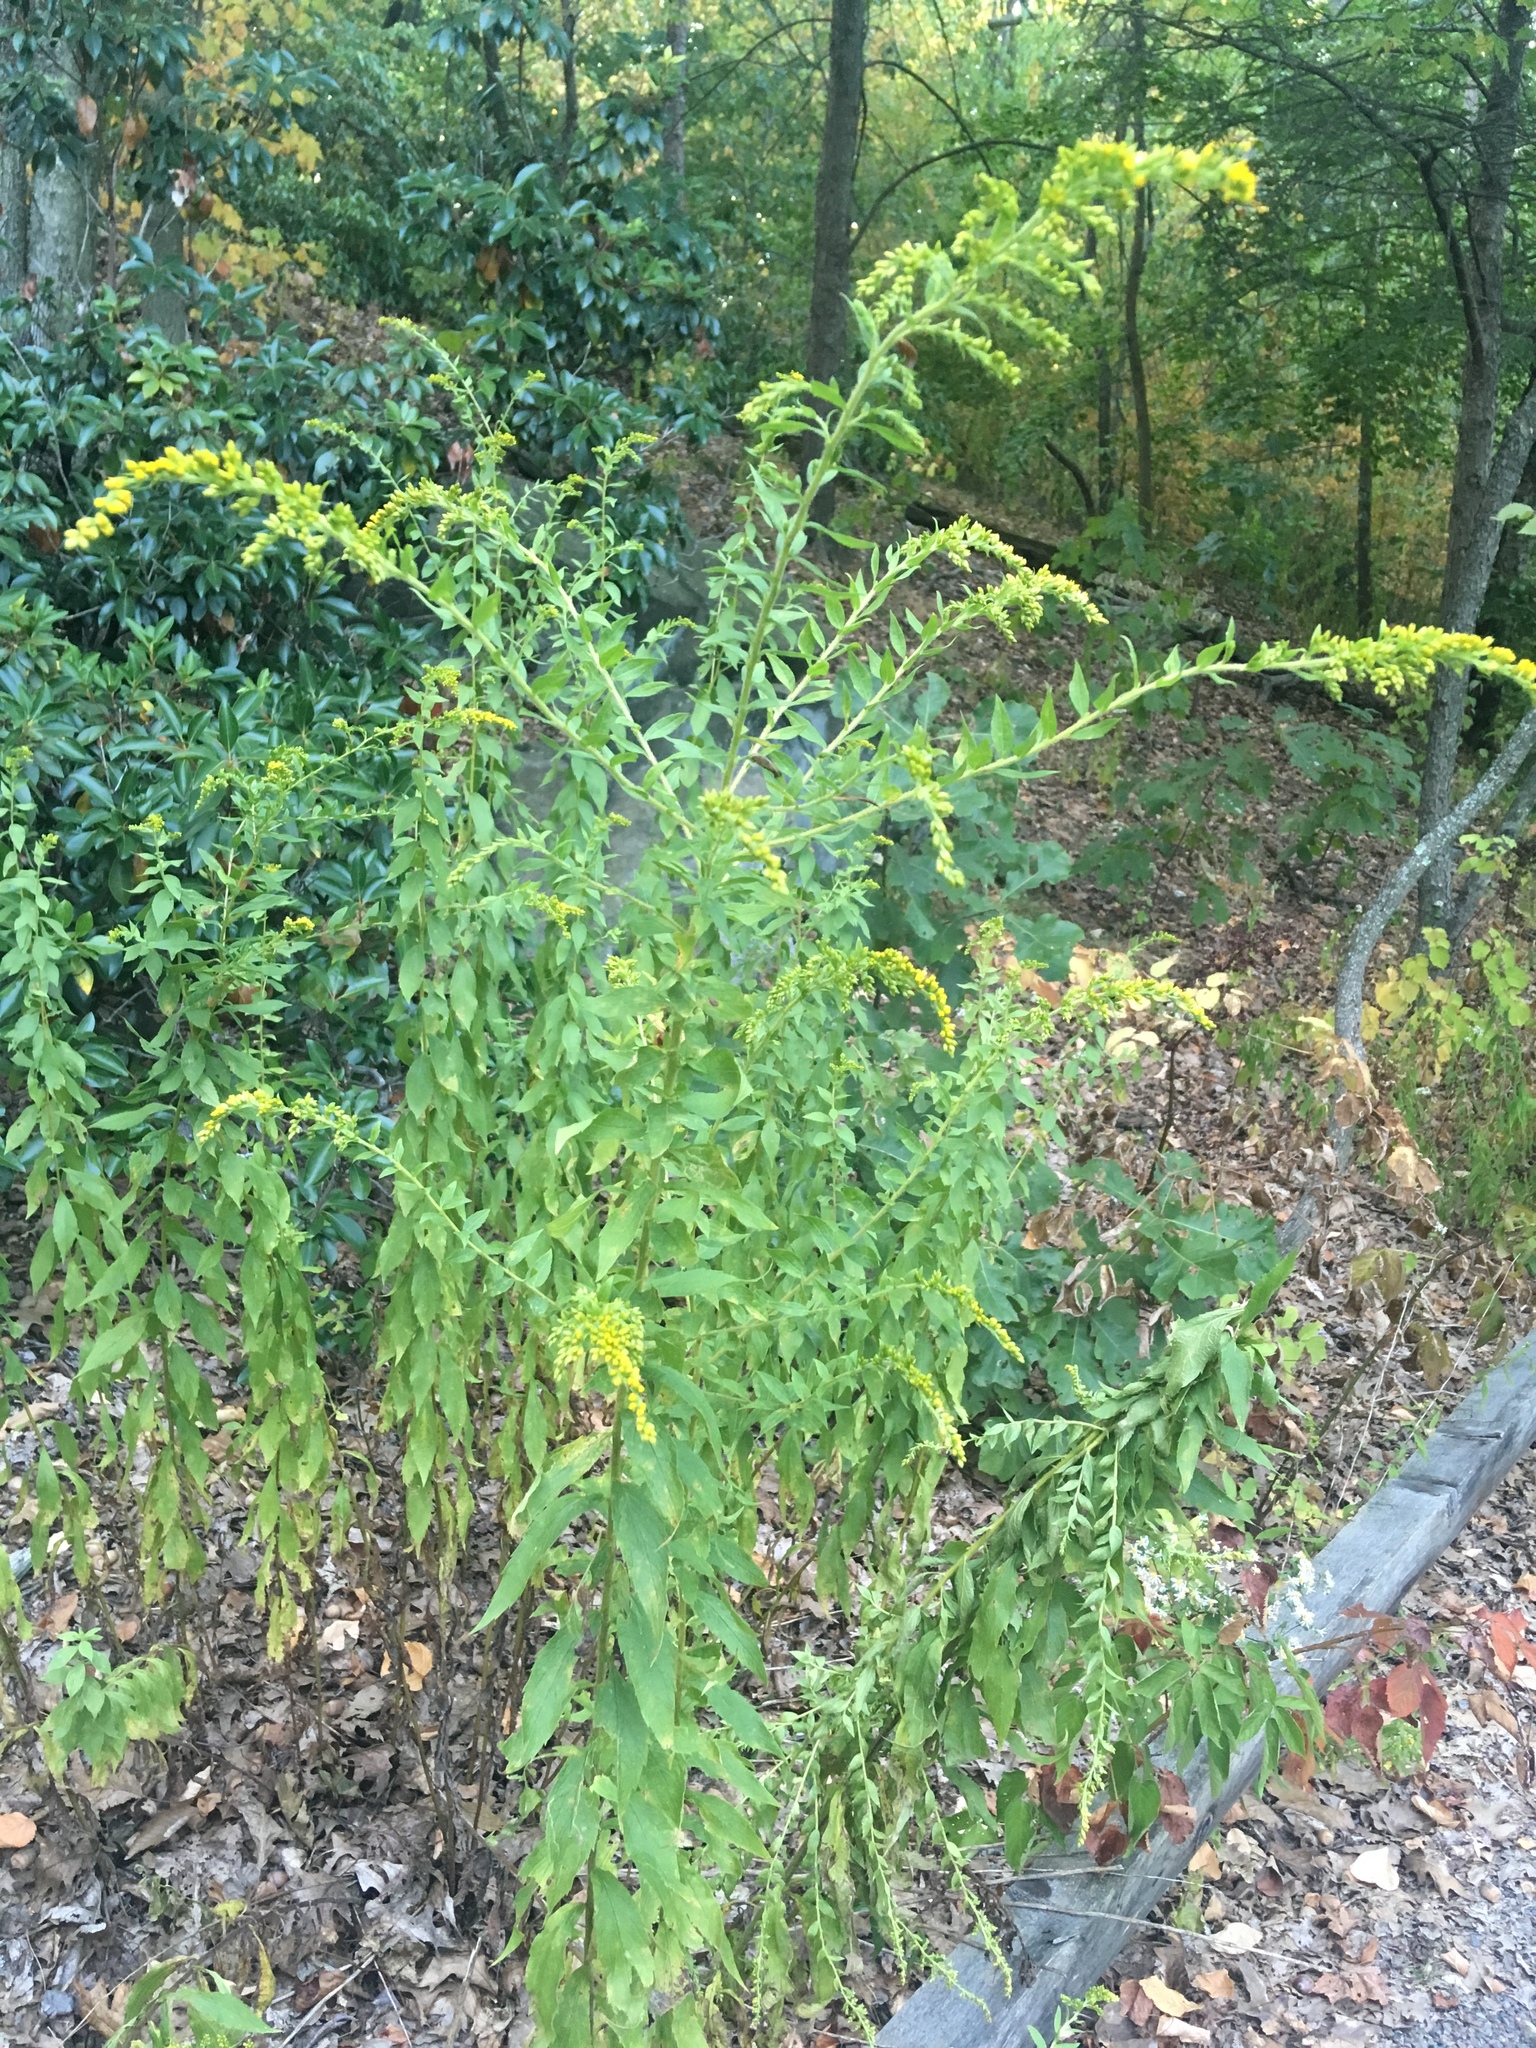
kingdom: Plantae
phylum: Tracheophyta
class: Magnoliopsida
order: Asterales
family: Asteraceae
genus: Solidago
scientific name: Solidago rugosa
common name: Rough-stemmed goldenrod
